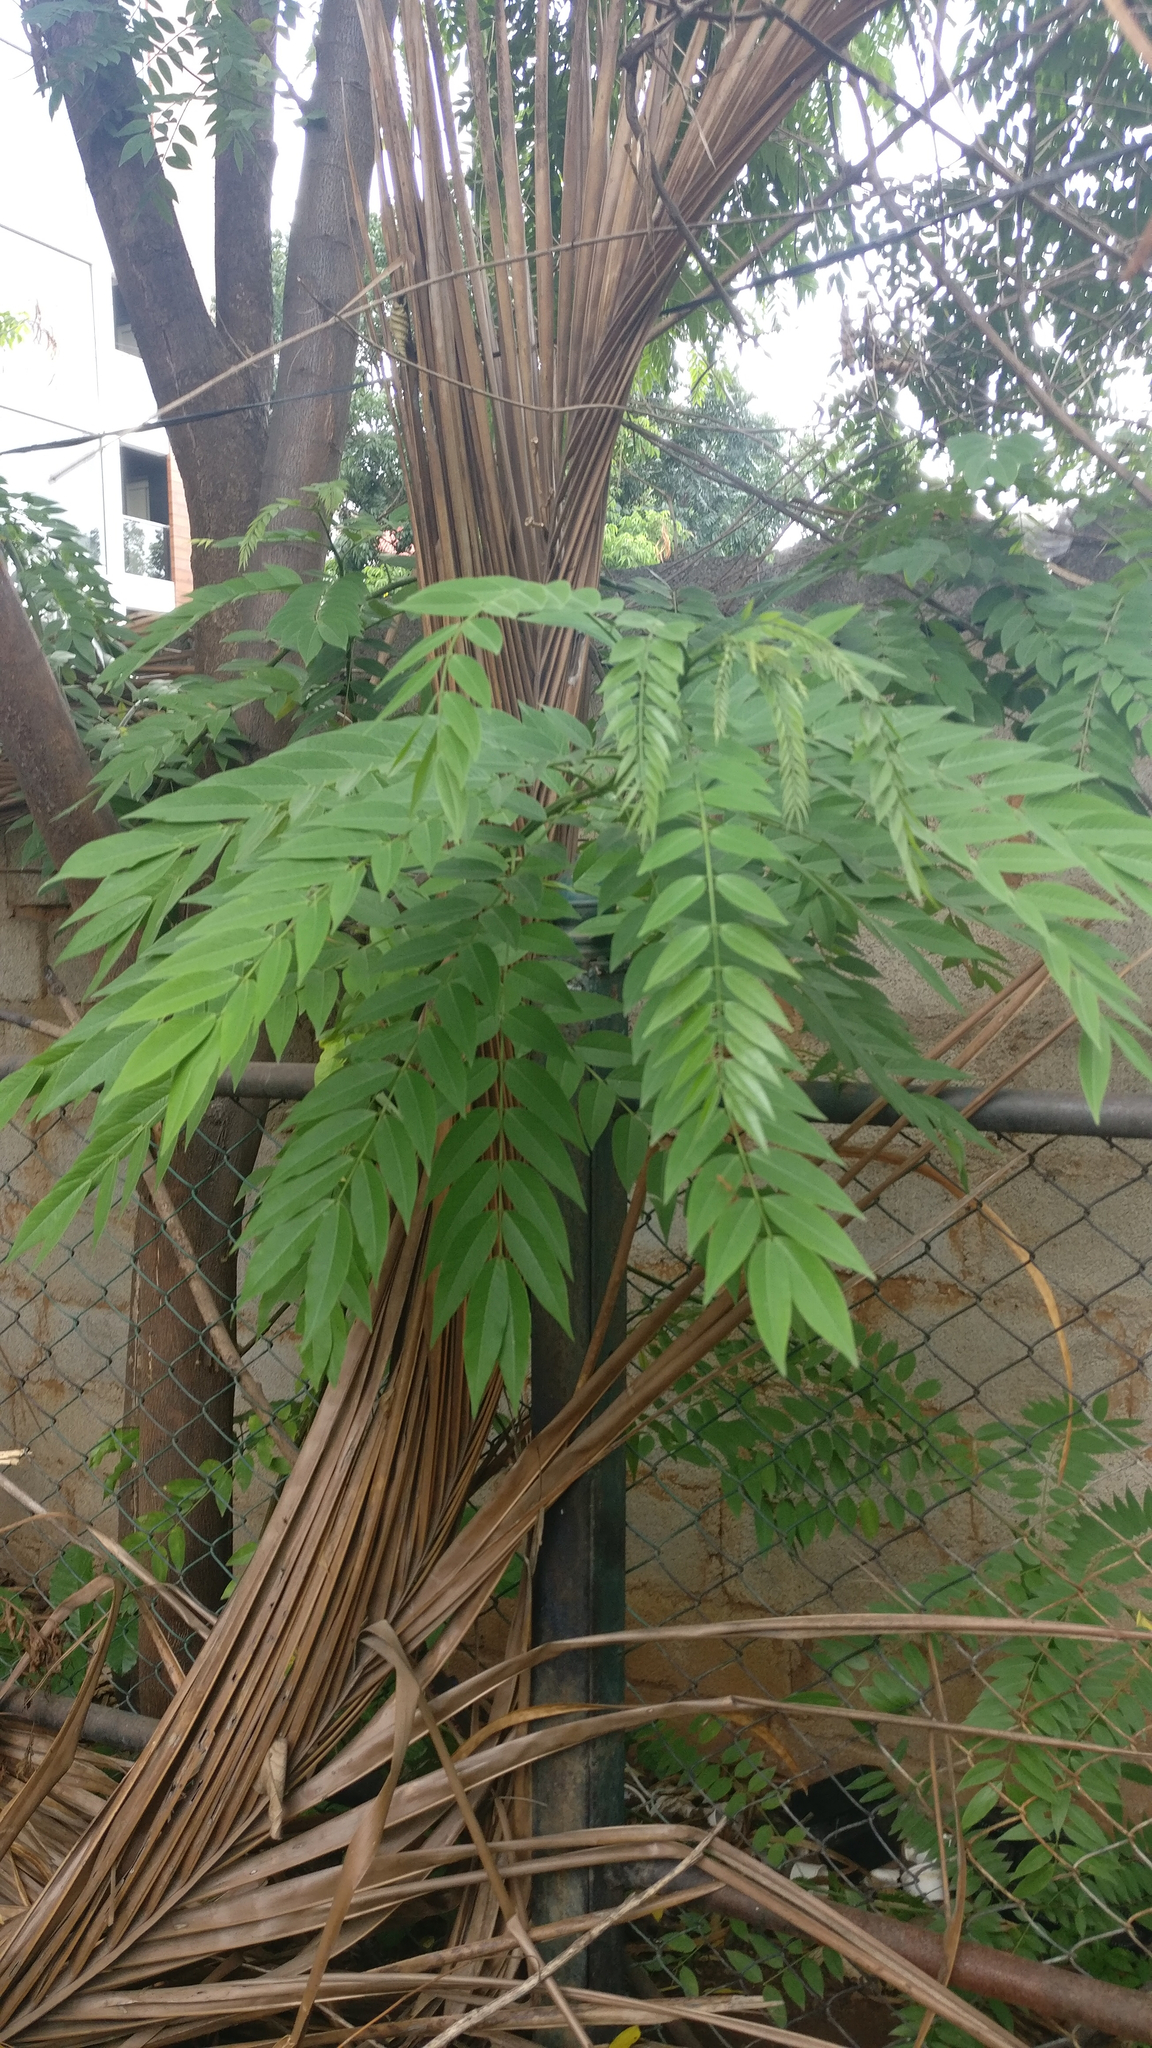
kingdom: Plantae
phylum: Tracheophyta
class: Magnoliopsida
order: Fabales
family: Fabaceae
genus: Senna
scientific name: Senna spectabilis
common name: Casia amarilla
